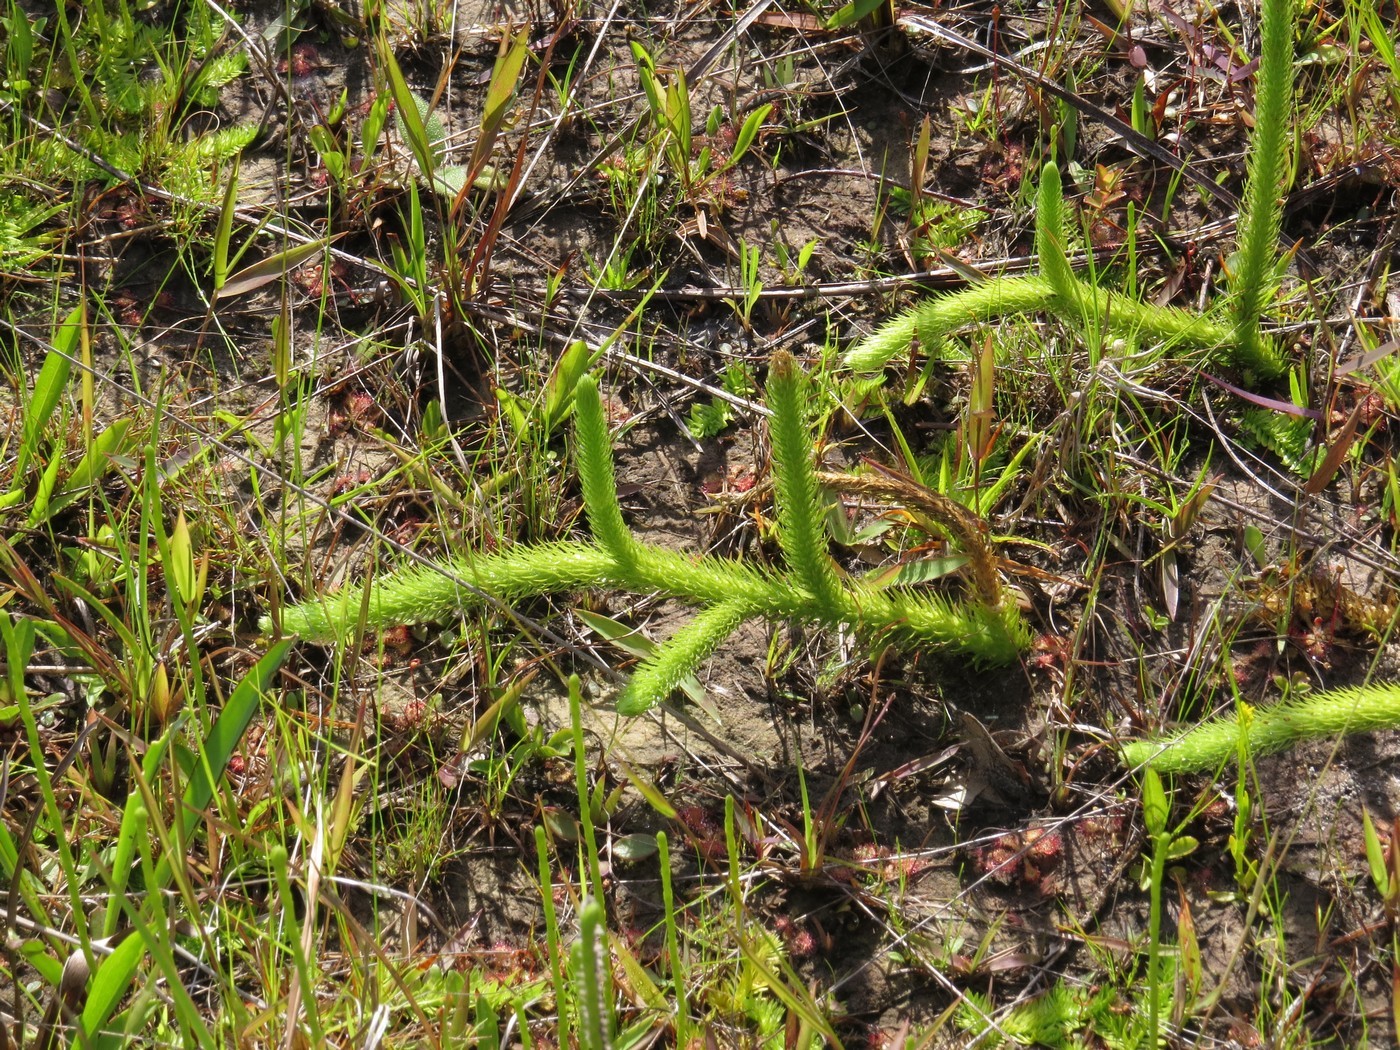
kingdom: Plantae
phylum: Tracheophyta
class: Lycopodiopsida
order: Lycopodiales
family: Lycopodiaceae
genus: Lycopodiella
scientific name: Lycopodiella alopecuroides
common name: Foxtail clubmoss
